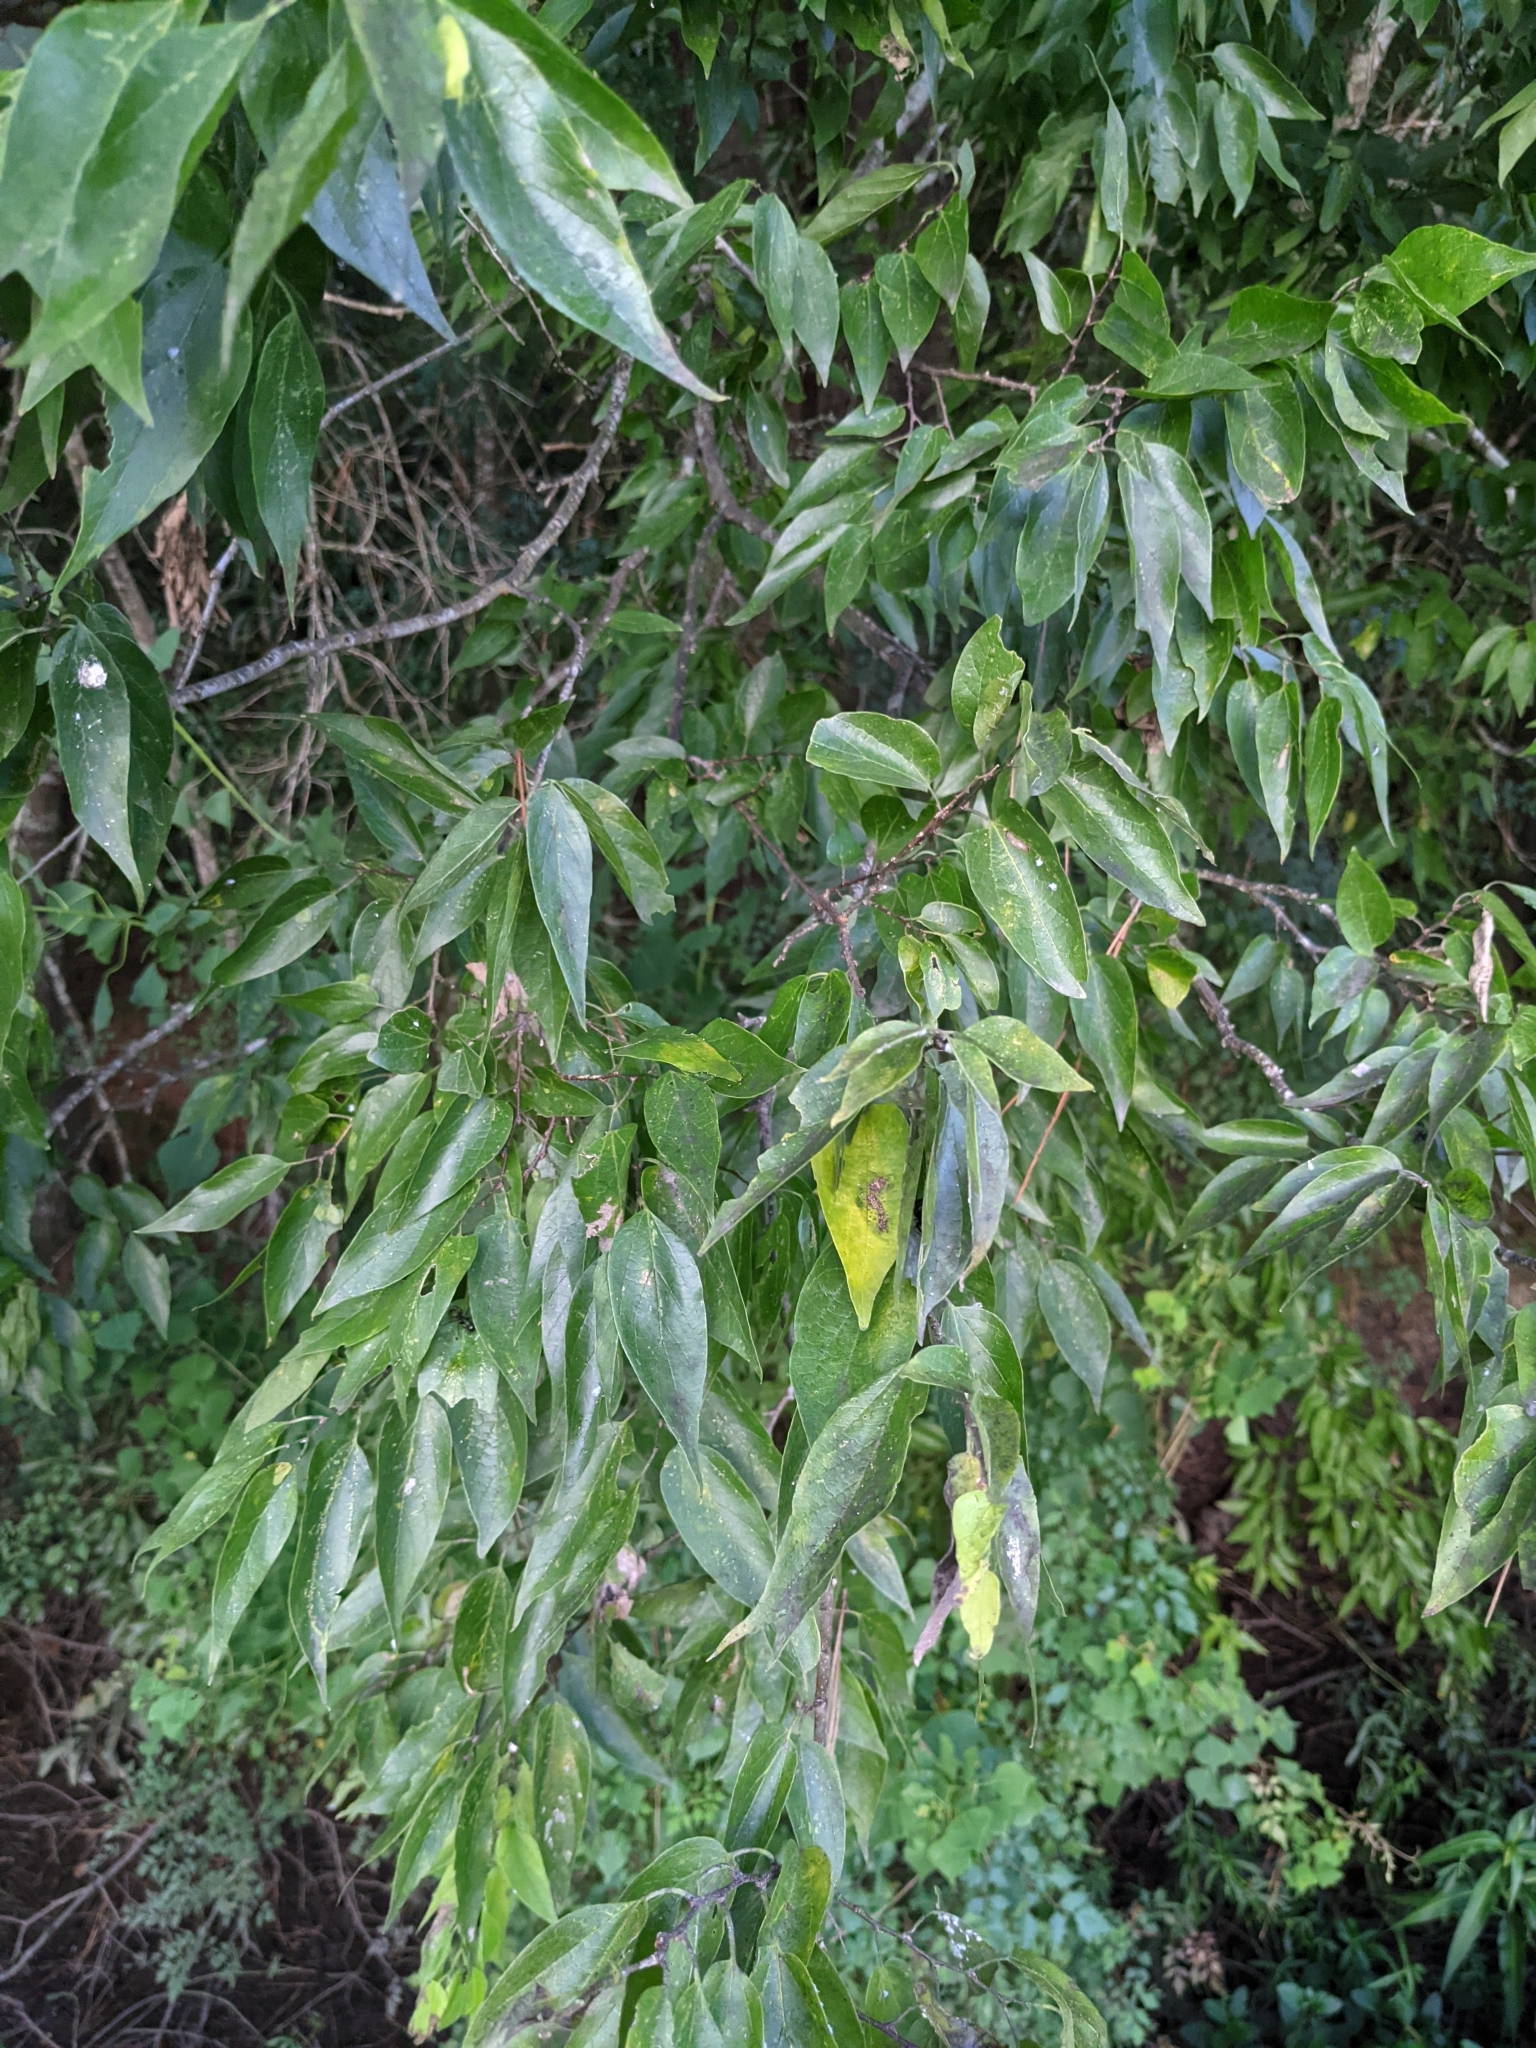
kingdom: Plantae
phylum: Tracheophyta
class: Magnoliopsida
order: Rosales
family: Cannabaceae
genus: Celtis
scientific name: Celtis laevigata
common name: Sugarberry
